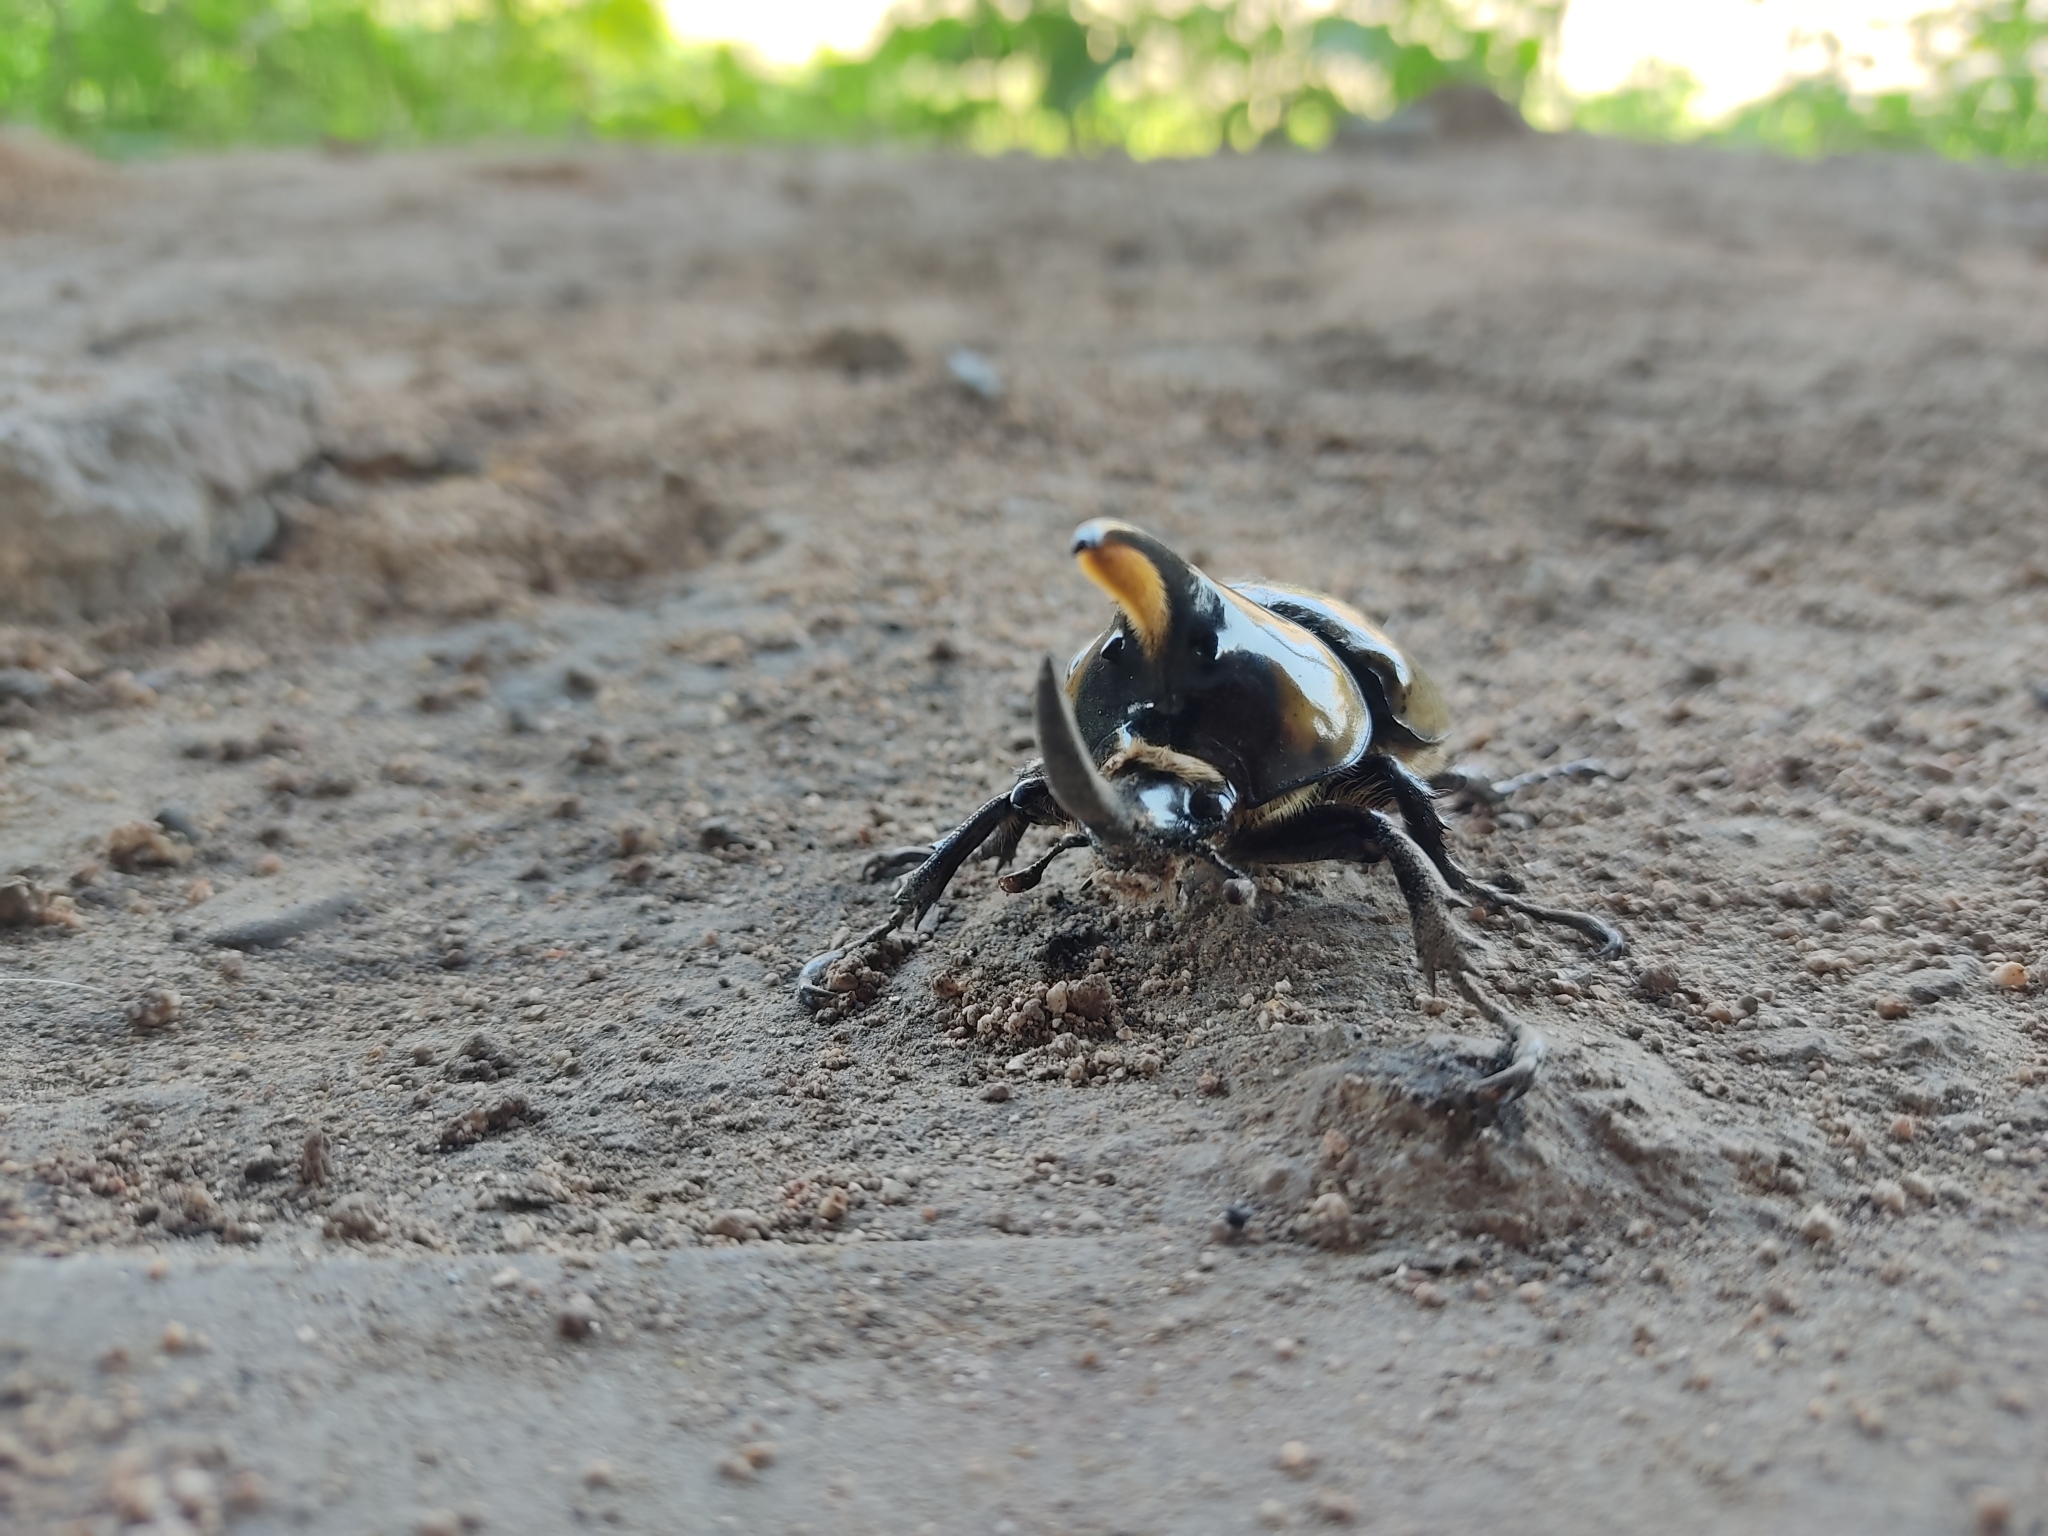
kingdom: Animalia
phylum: Arthropoda
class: Insecta
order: Coleoptera
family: Scarabaeidae
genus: Dynastes
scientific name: Dynastes hyllus
